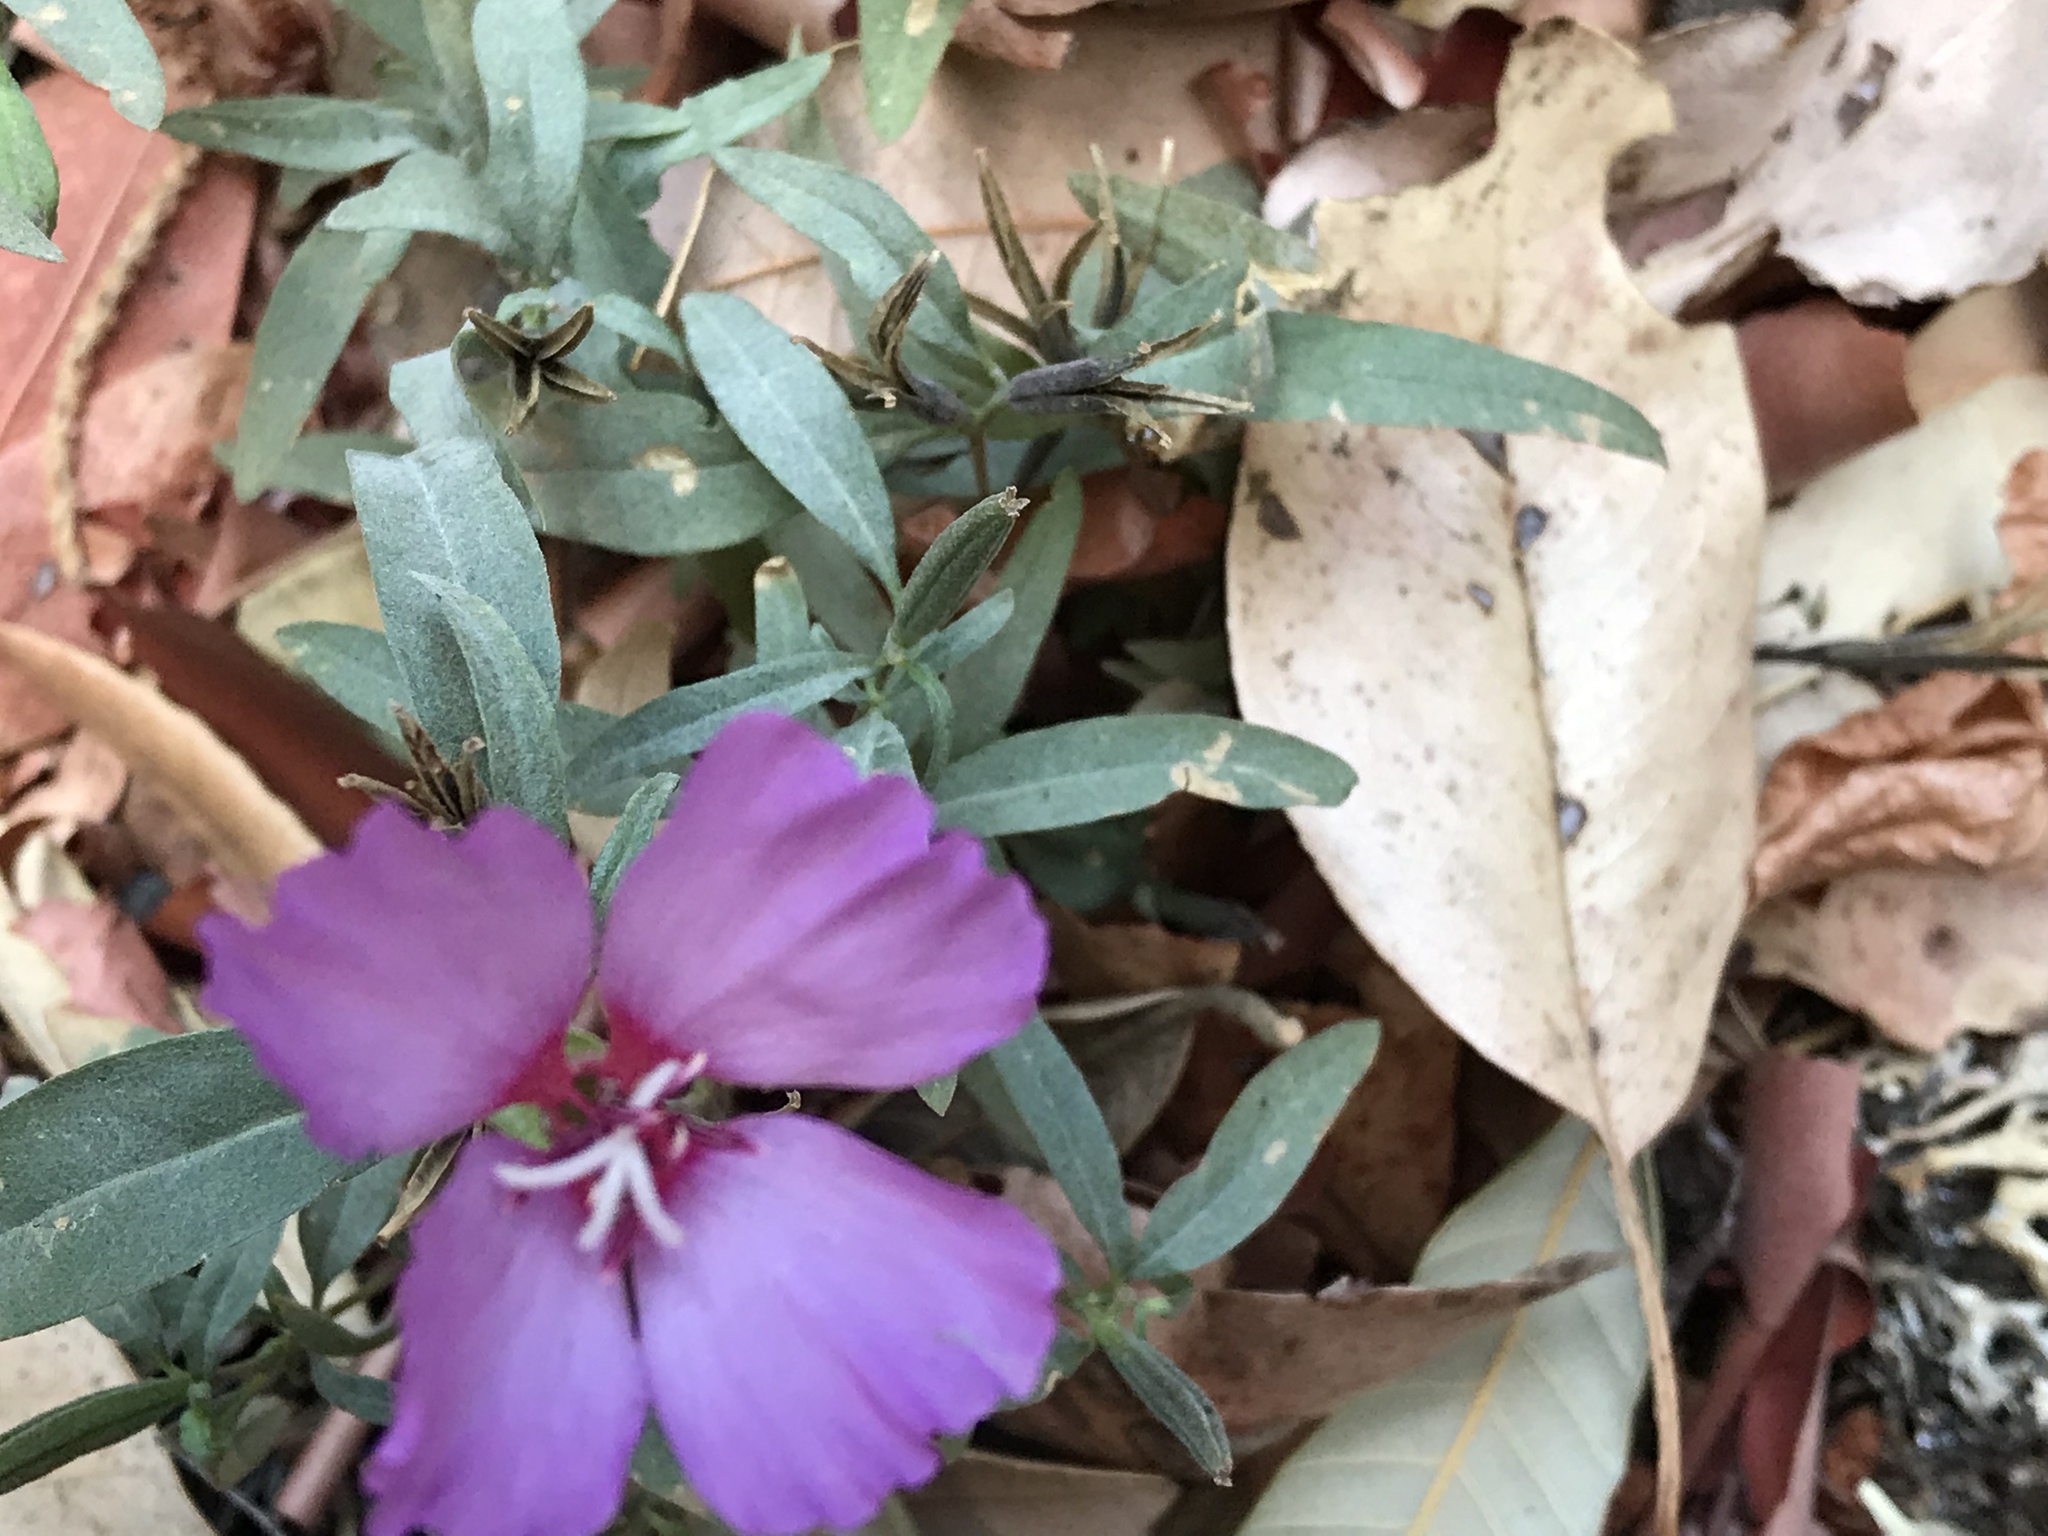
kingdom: Plantae
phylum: Tracheophyta
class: Magnoliopsida
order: Myrtales
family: Onagraceae
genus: Clarkia
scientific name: Clarkia rubicunda
